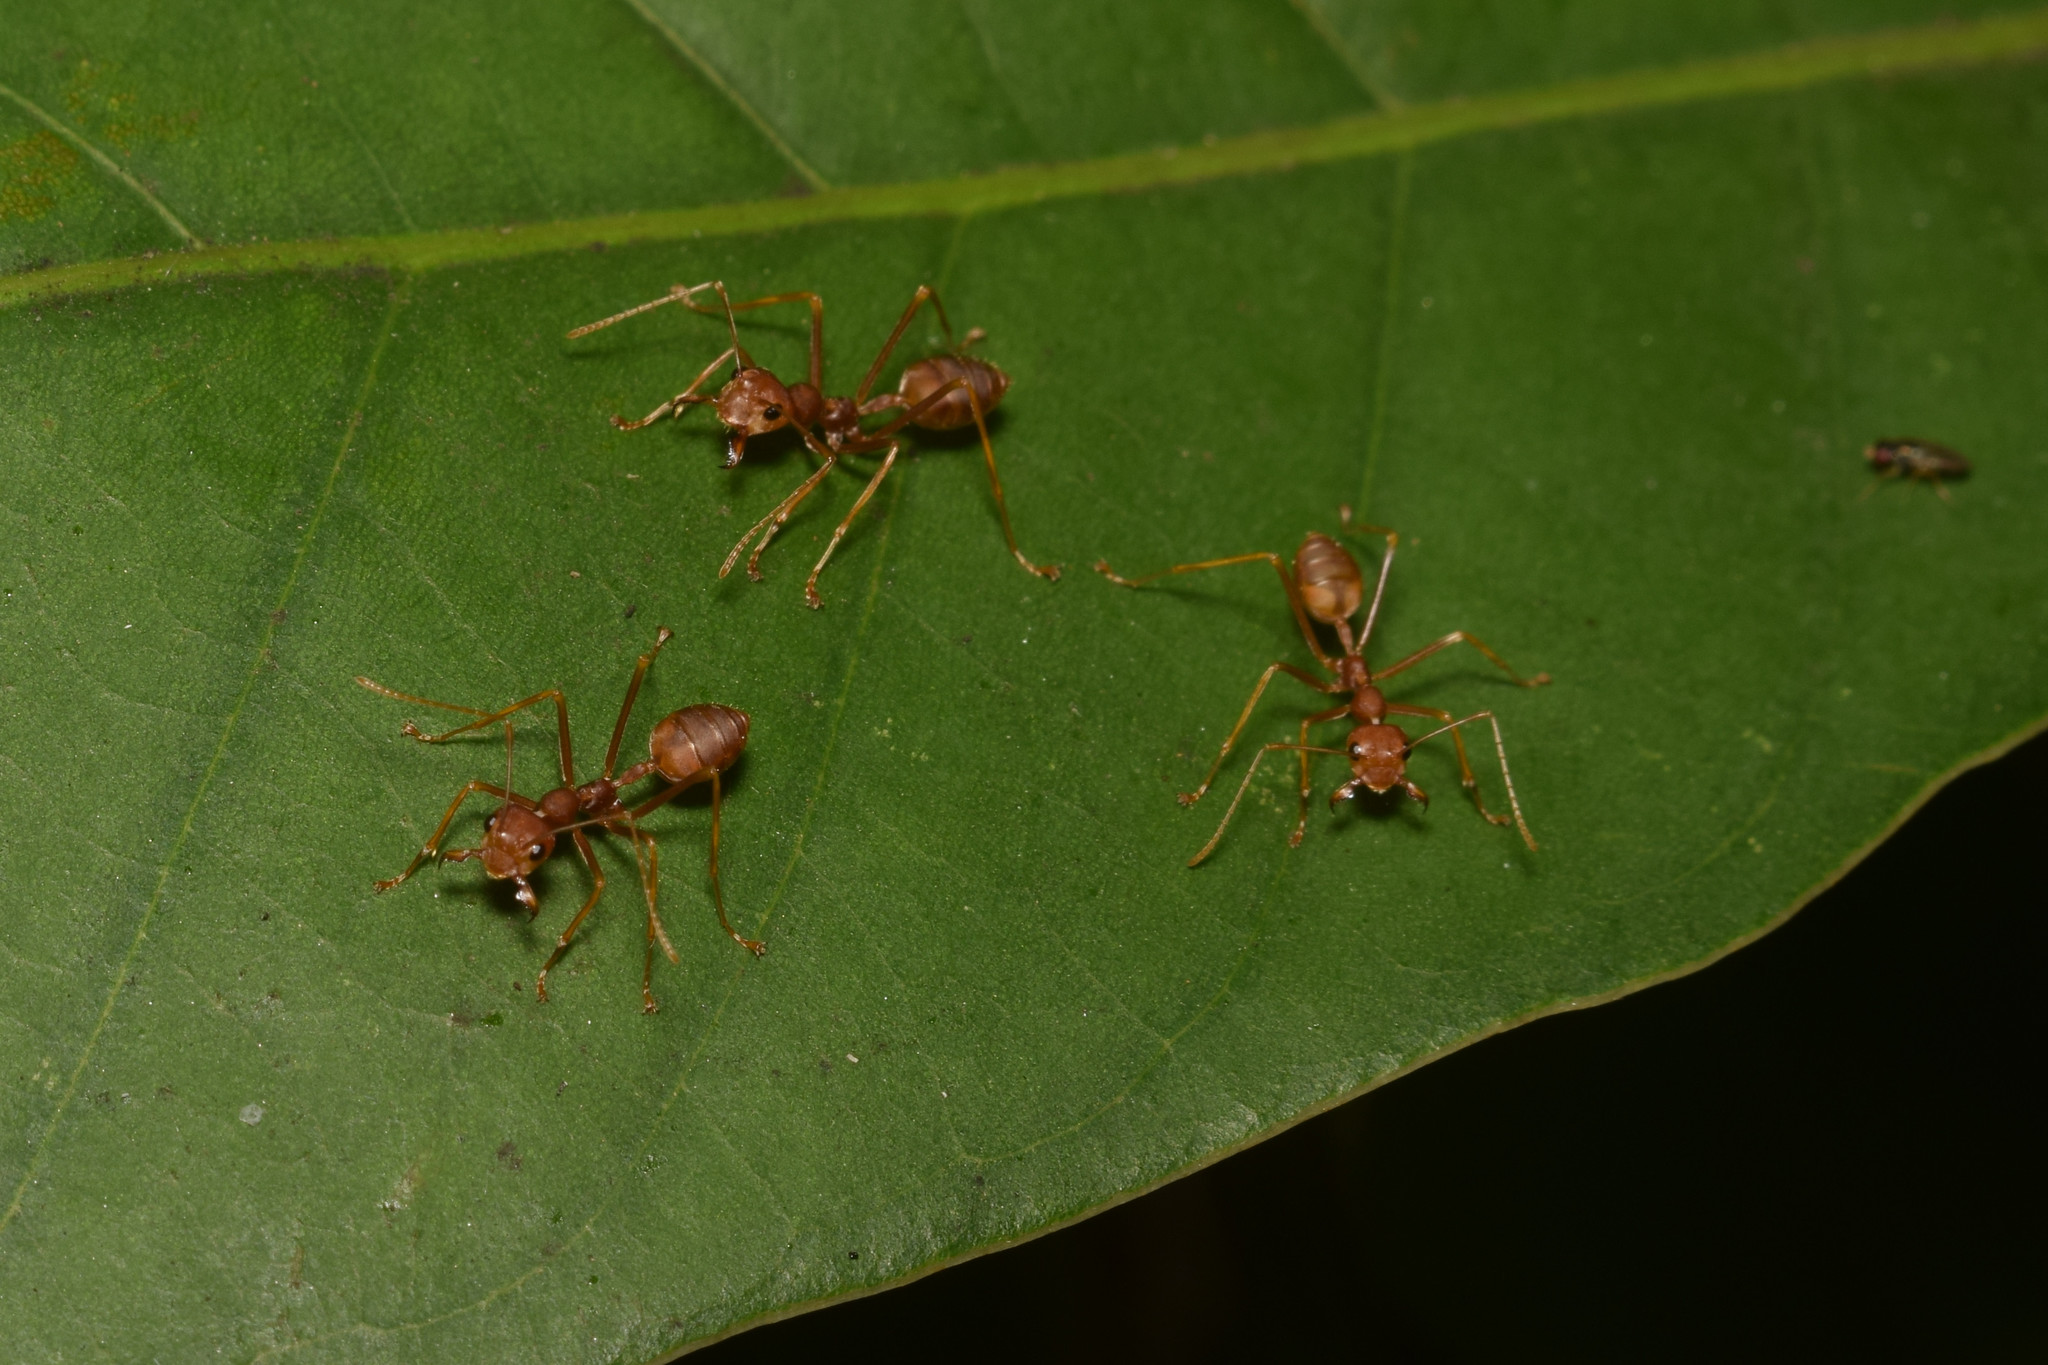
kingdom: Animalia
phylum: Arthropoda
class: Insecta
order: Hymenoptera
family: Formicidae
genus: Oecophylla
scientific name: Oecophylla smaragdina
